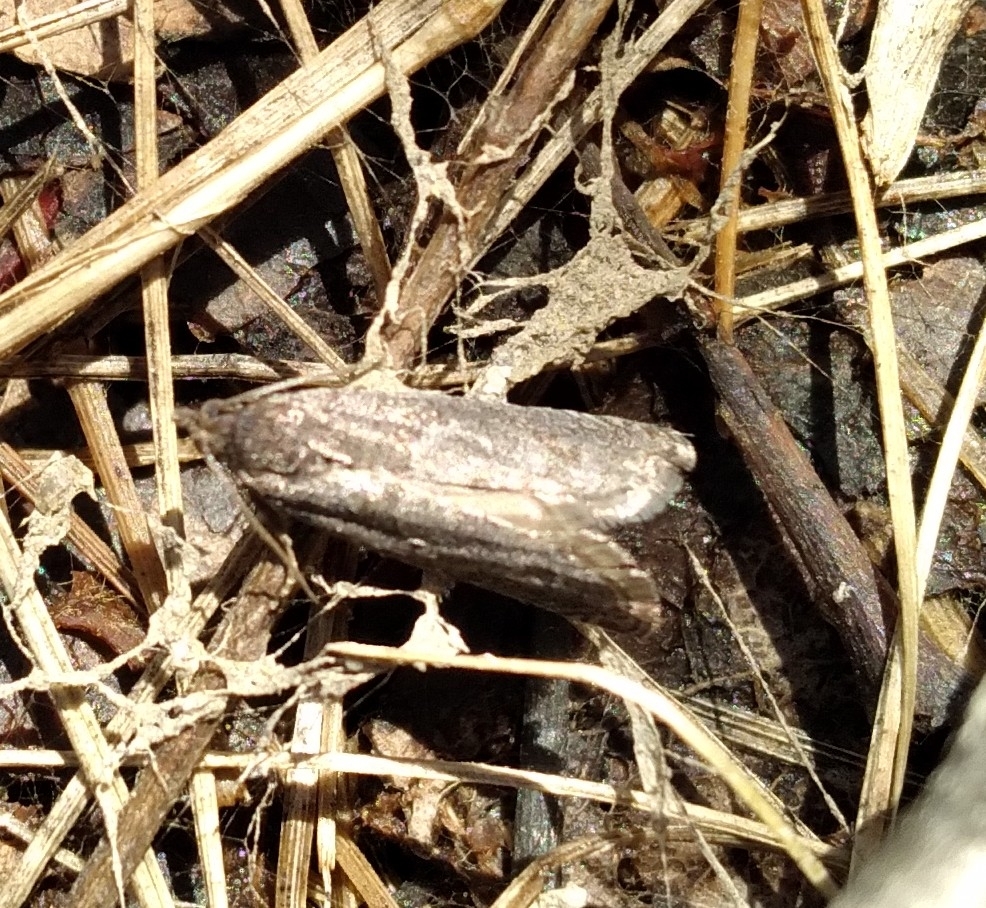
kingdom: Animalia
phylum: Arthropoda
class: Insecta
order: Lepidoptera
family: Tortricidae
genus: Pseudexentera
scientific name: Pseudexentera oregonana
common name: Early aspen leafcurler
